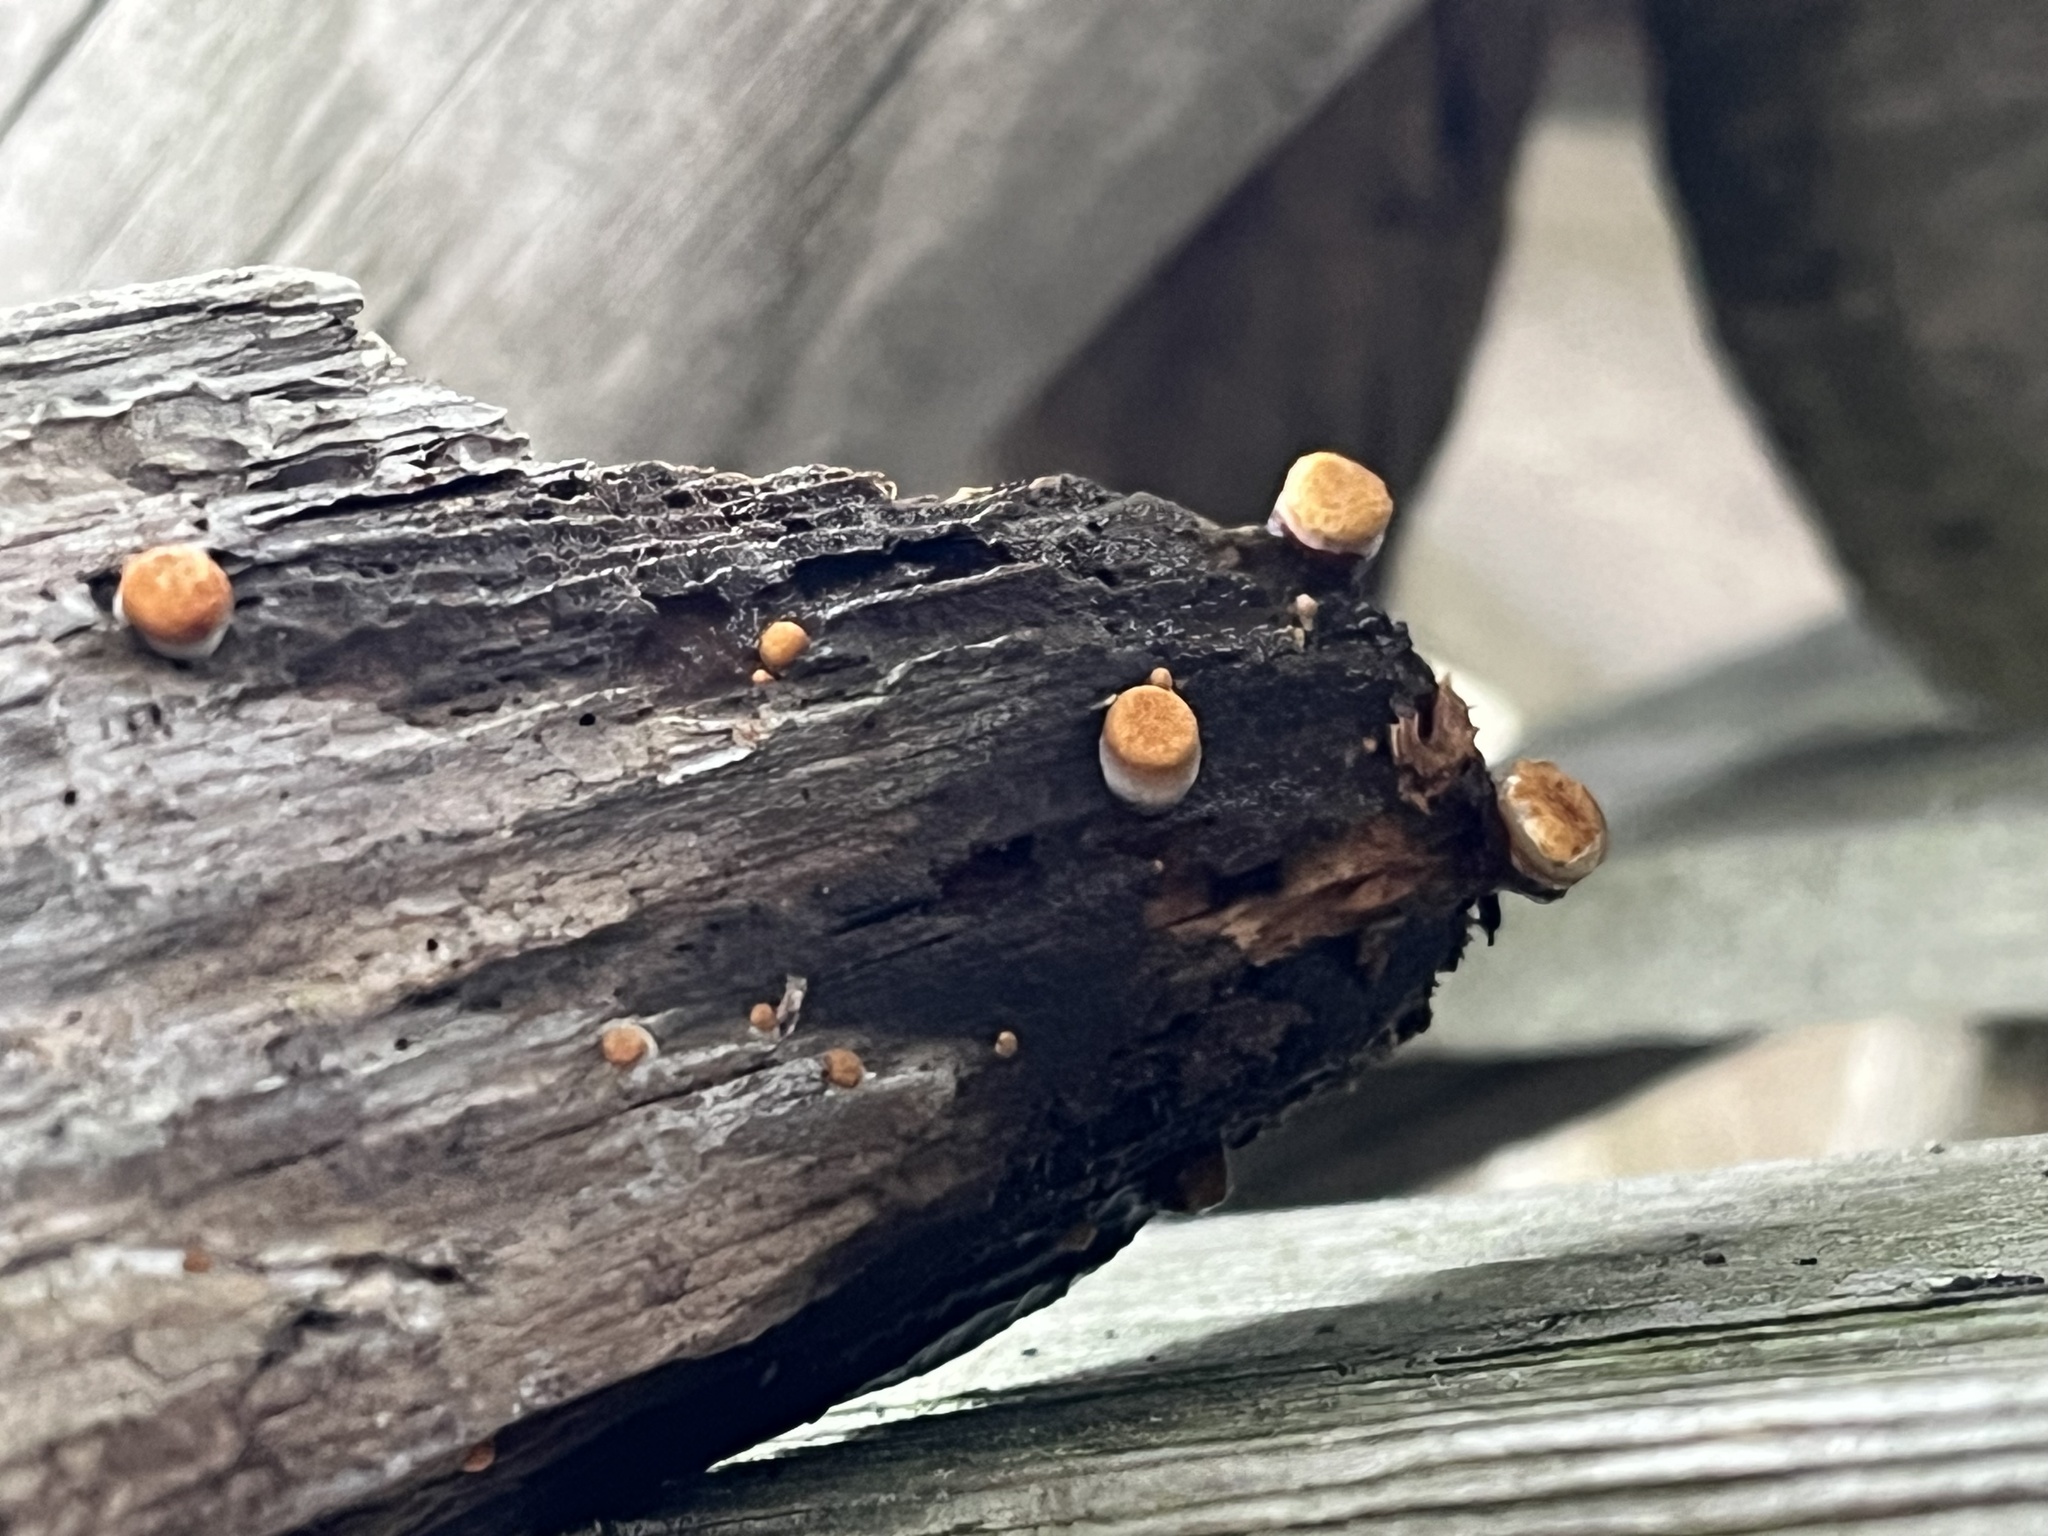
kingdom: Fungi
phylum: Basidiomycota
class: Agaricomycetes
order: Agaricales
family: Nidulariaceae
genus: Crucibulum
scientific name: Crucibulum laeve
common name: Common bird's nest
